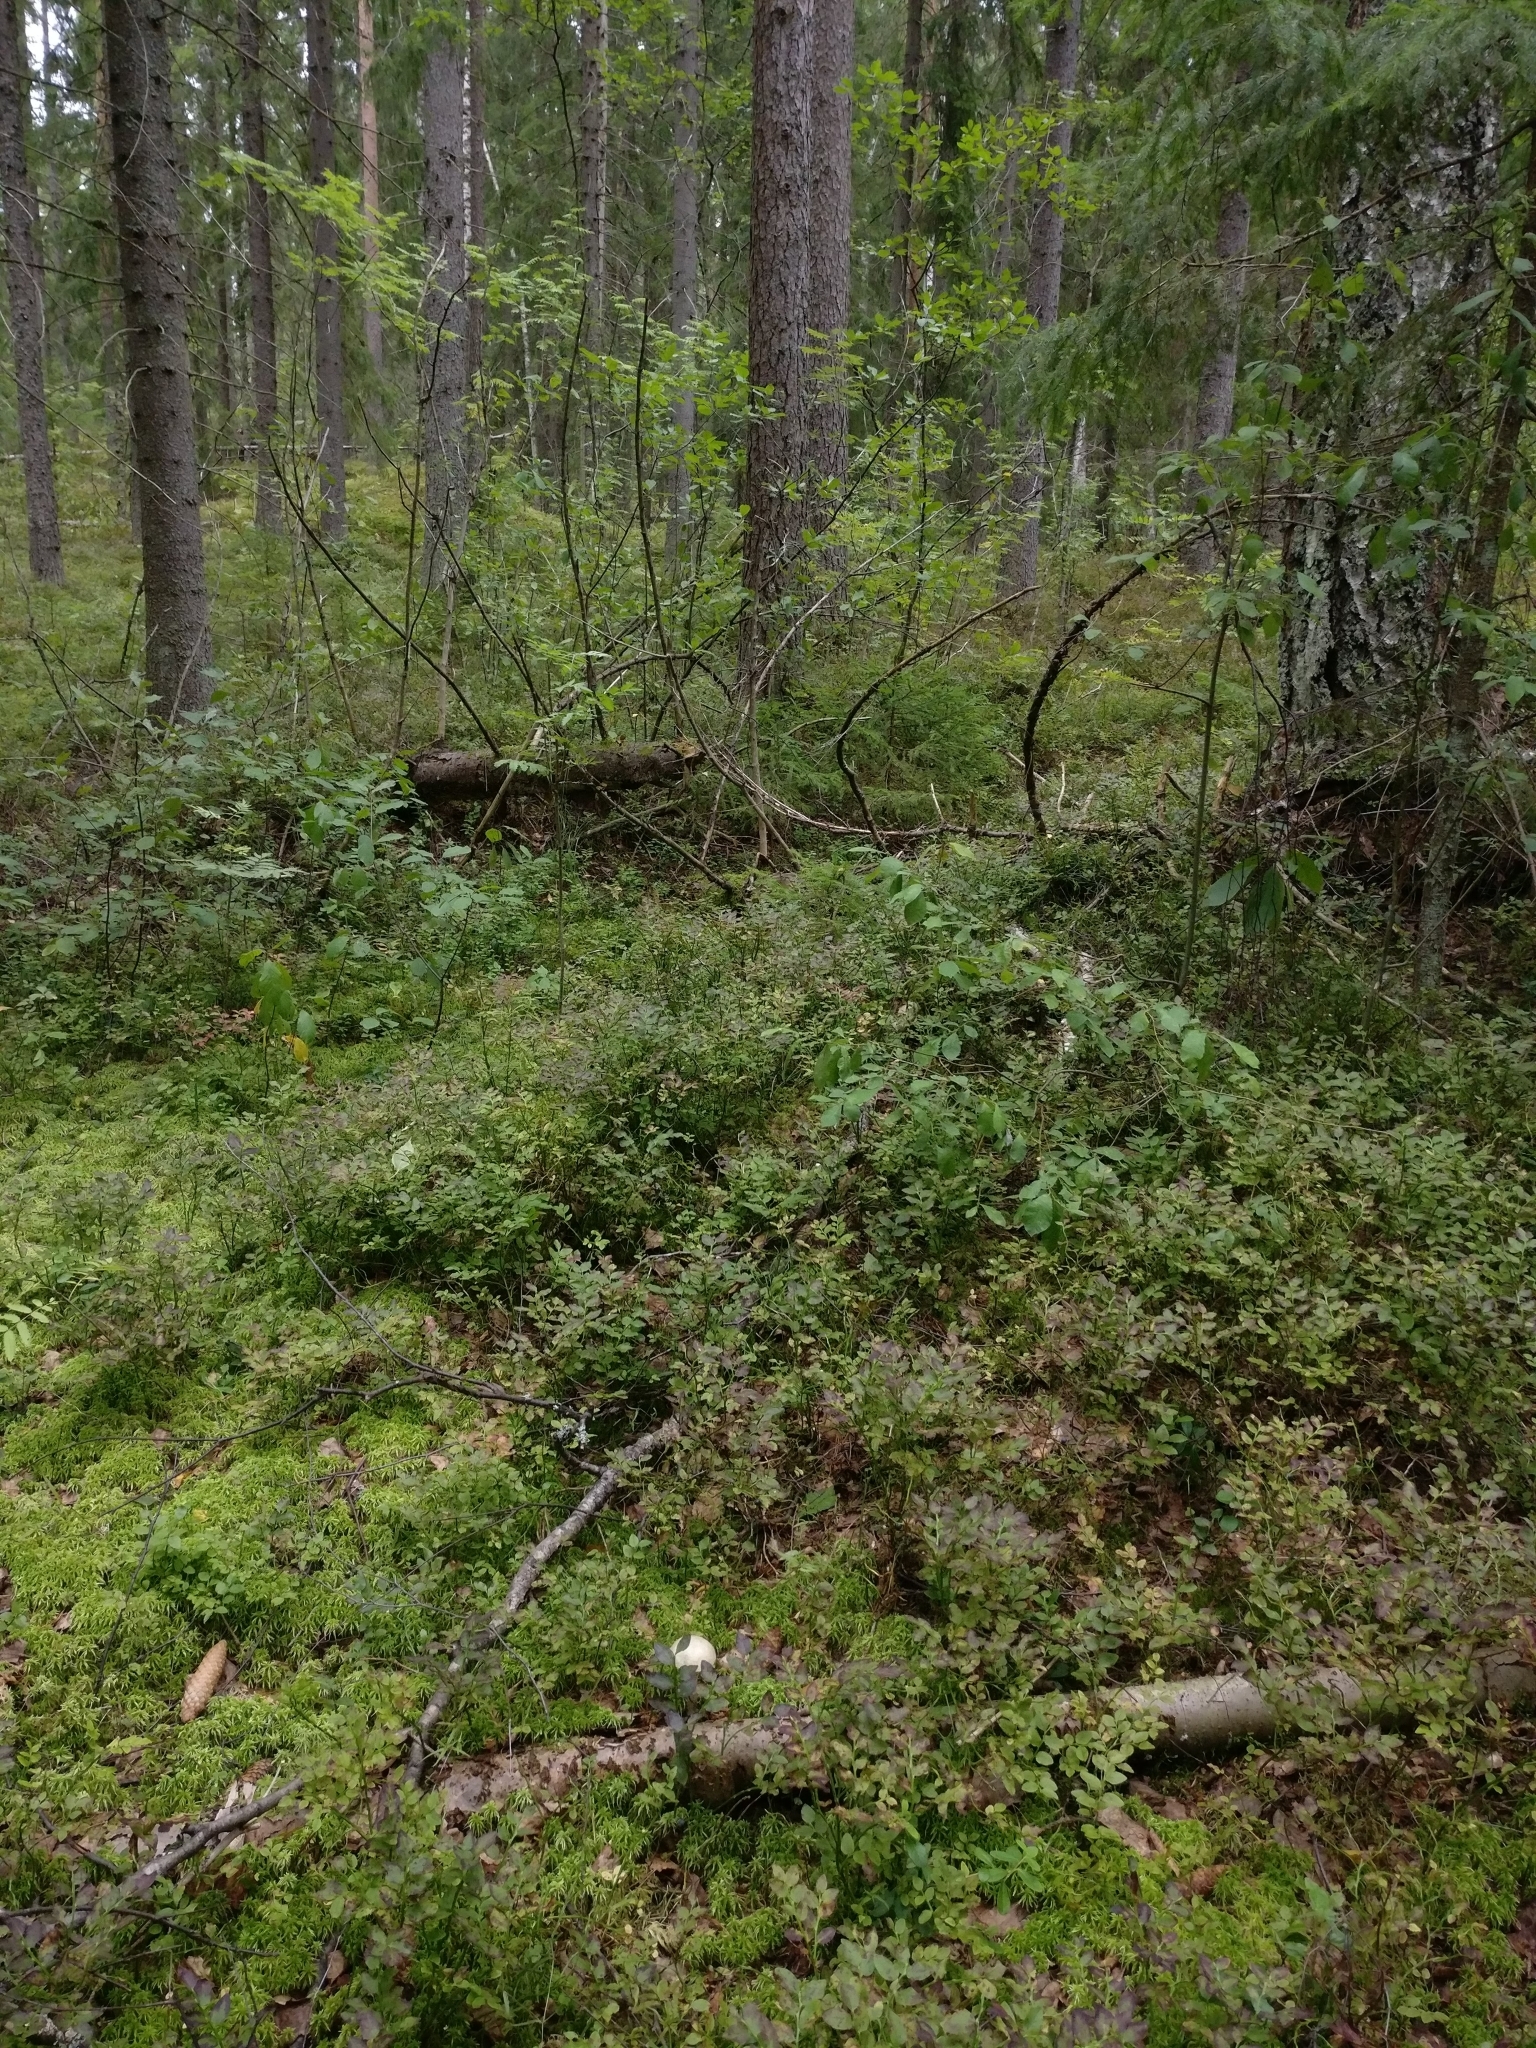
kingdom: Fungi
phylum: Basidiomycota
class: Agaricomycetes
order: Boletales
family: Boletaceae
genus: Leccinum
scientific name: Leccinum holopus
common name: Ghost bolete
